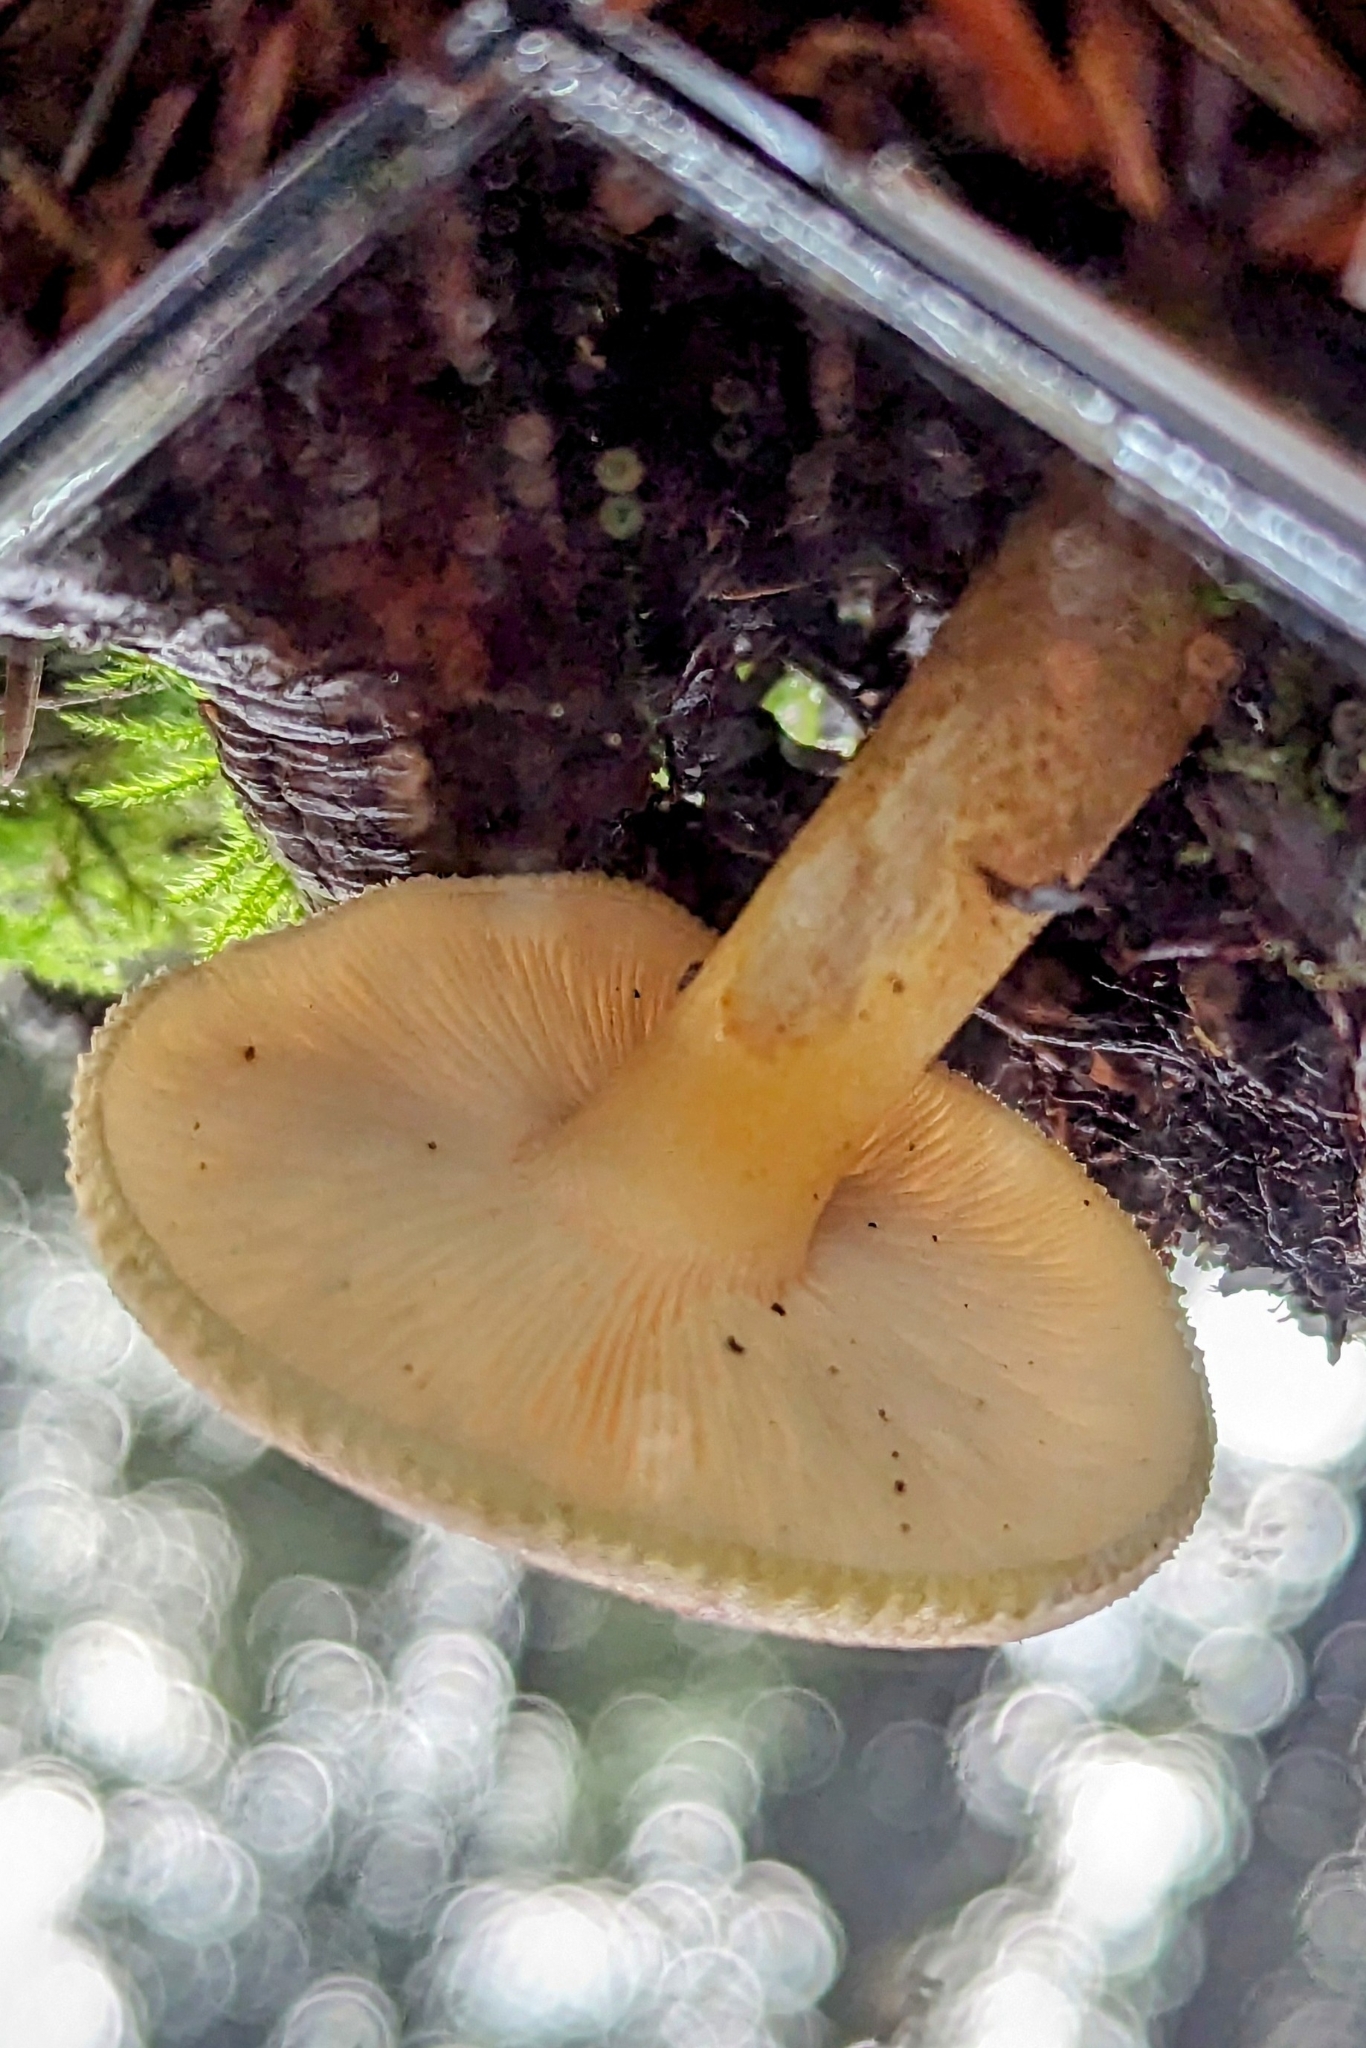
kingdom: Fungi
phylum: Basidiomycota
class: Agaricomycetes
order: Agaricales
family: Tricholomataceae
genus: Tricholomopsis
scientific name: Tricholomopsis rutilans
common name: Plums and custard
